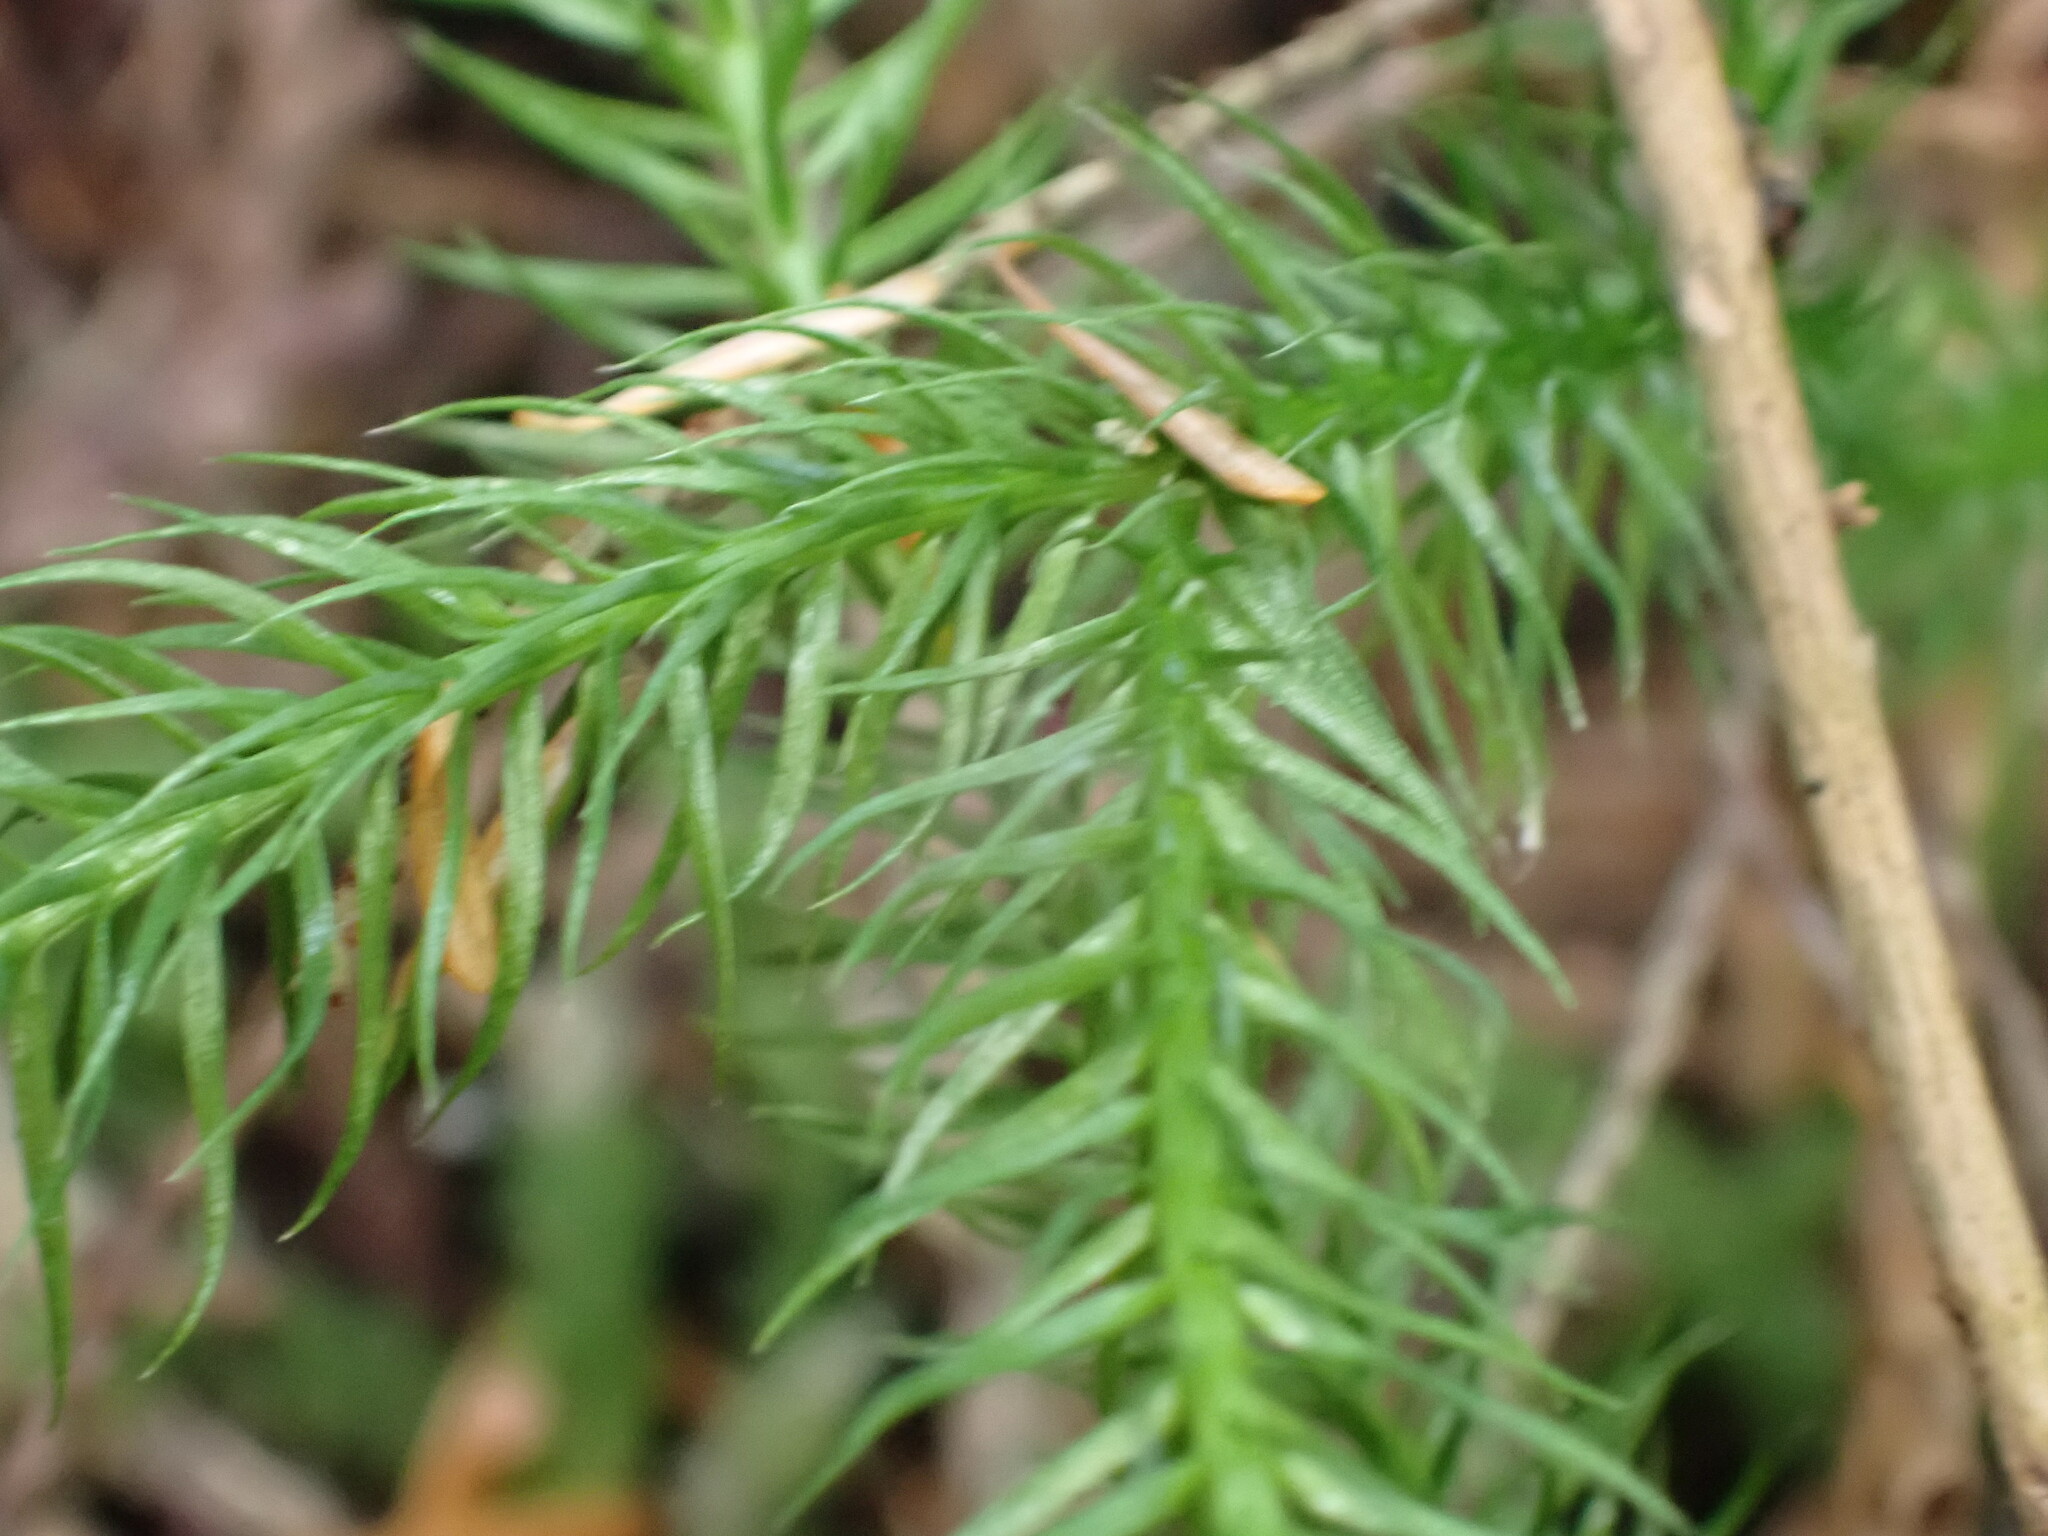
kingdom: Plantae
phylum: Tracheophyta
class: Lycopodiopsida
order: Lycopodiales
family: Lycopodiaceae
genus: Lycopodium
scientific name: Lycopodium clavatum
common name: Stag's-horn clubmoss
